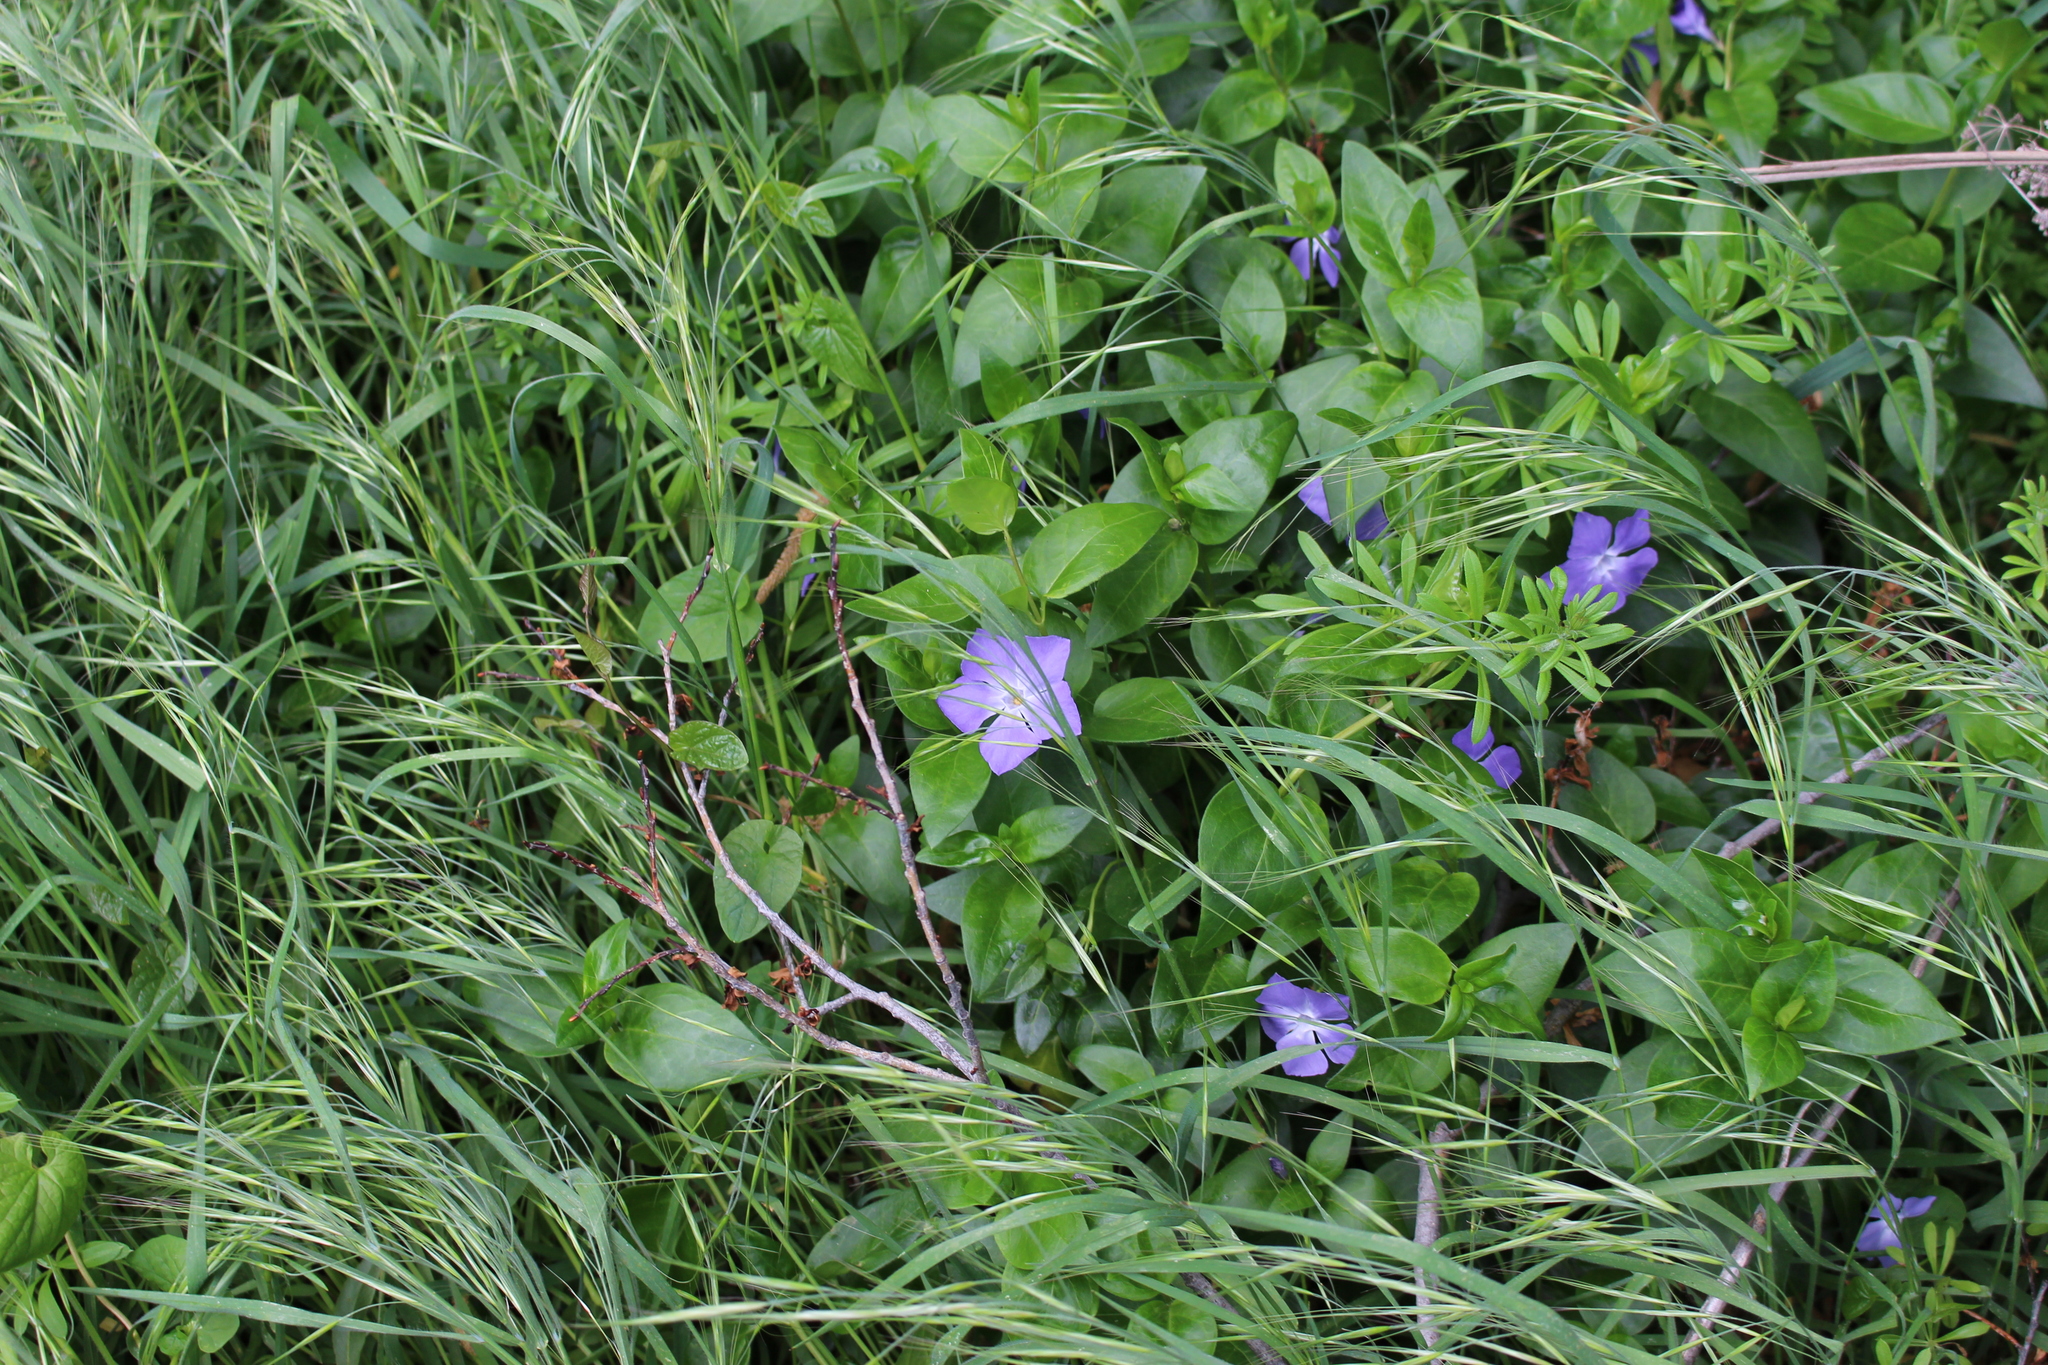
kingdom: Plantae
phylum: Tracheophyta
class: Magnoliopsida
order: Gentianales
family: Apocynaceae
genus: Vinca
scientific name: Vinca major
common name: Greater periwinkle
